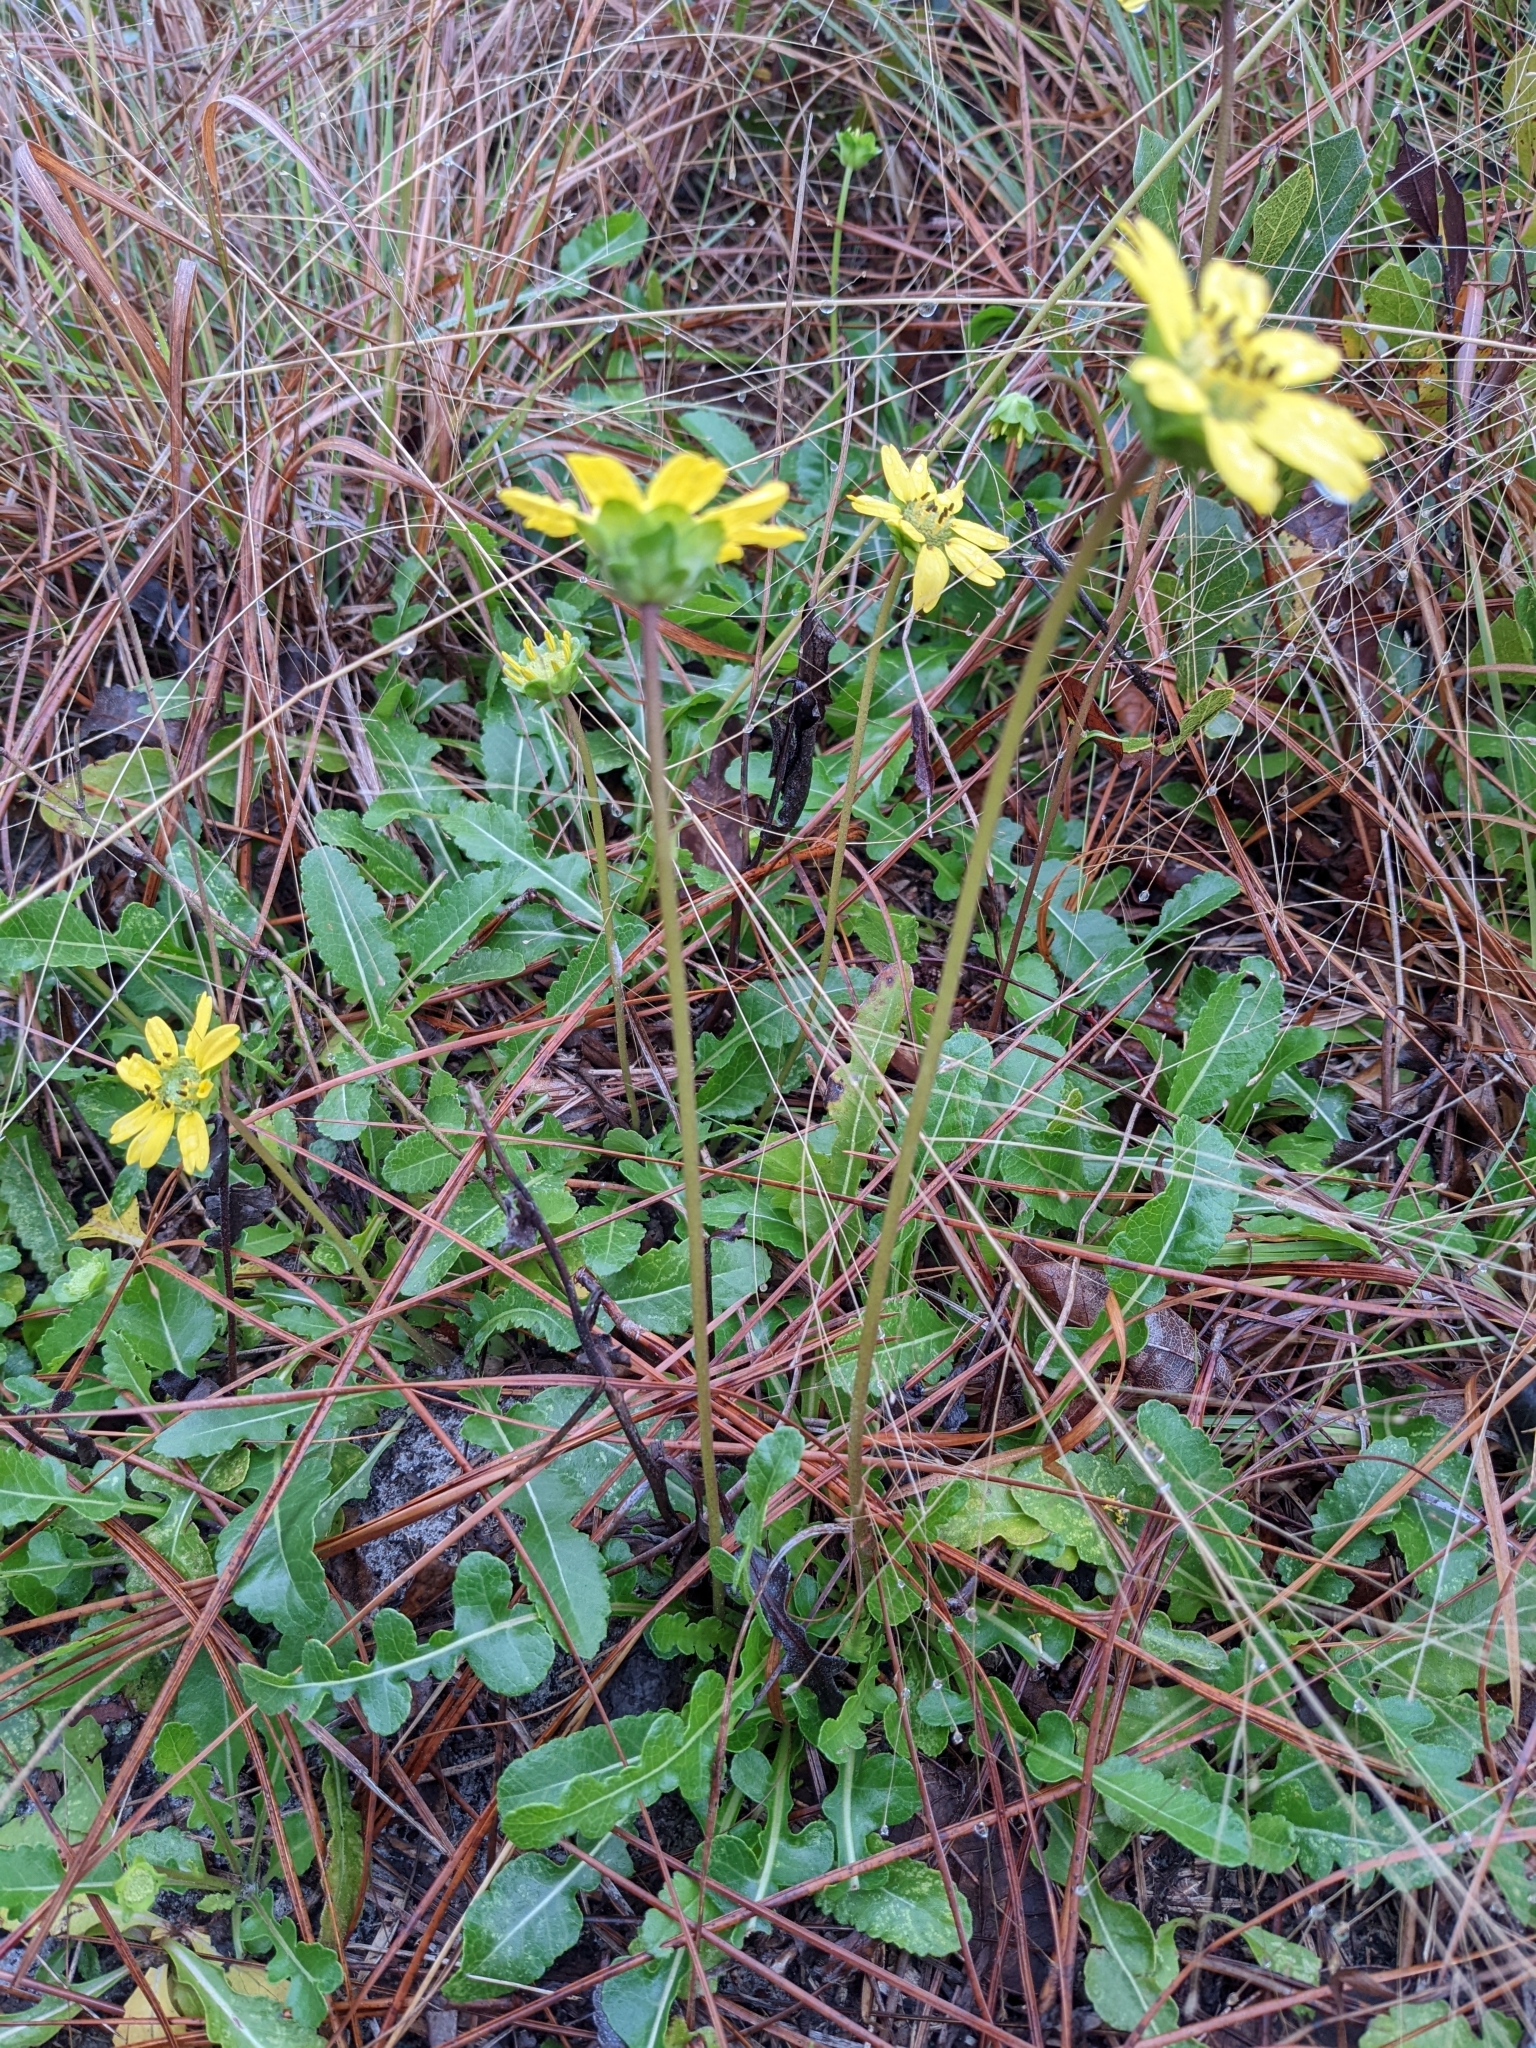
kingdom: Plantae
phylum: Tracheophyta
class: Magnoliopsida
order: Asterales
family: Asteraceae
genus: Berlandiera
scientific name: Berlandiera subacaulis
